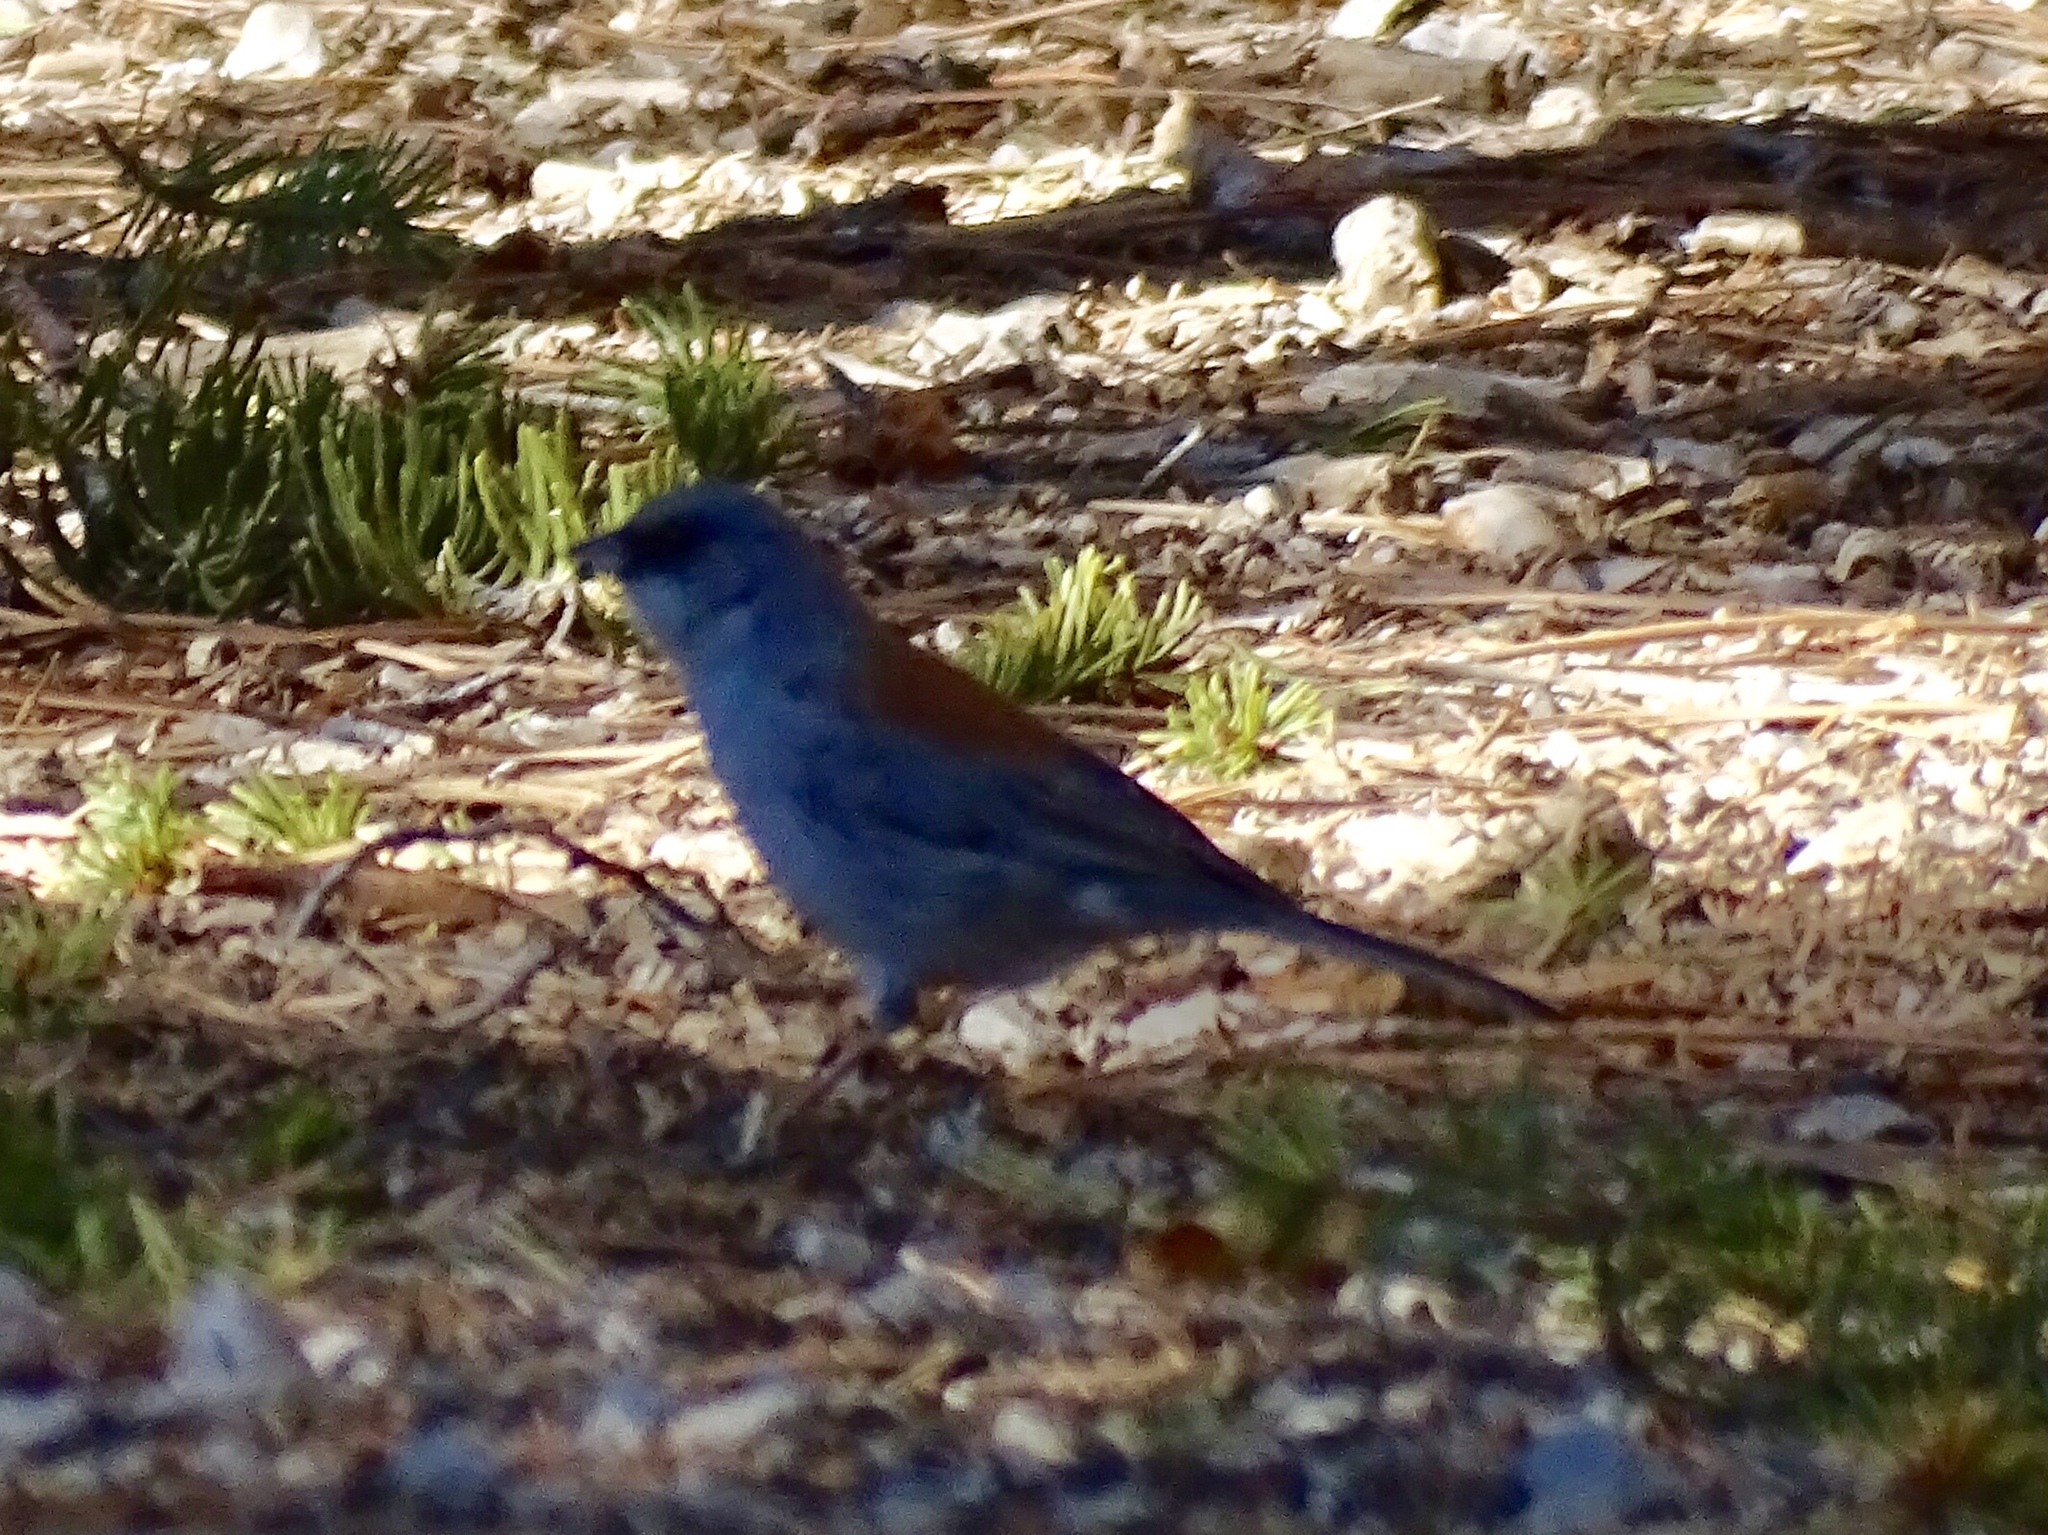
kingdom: Animalia
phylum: Chordata
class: Aves
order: Passeriformes
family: Passerellidae
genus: Junco
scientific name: Junco hyemalis
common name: Dark-eyed junco
